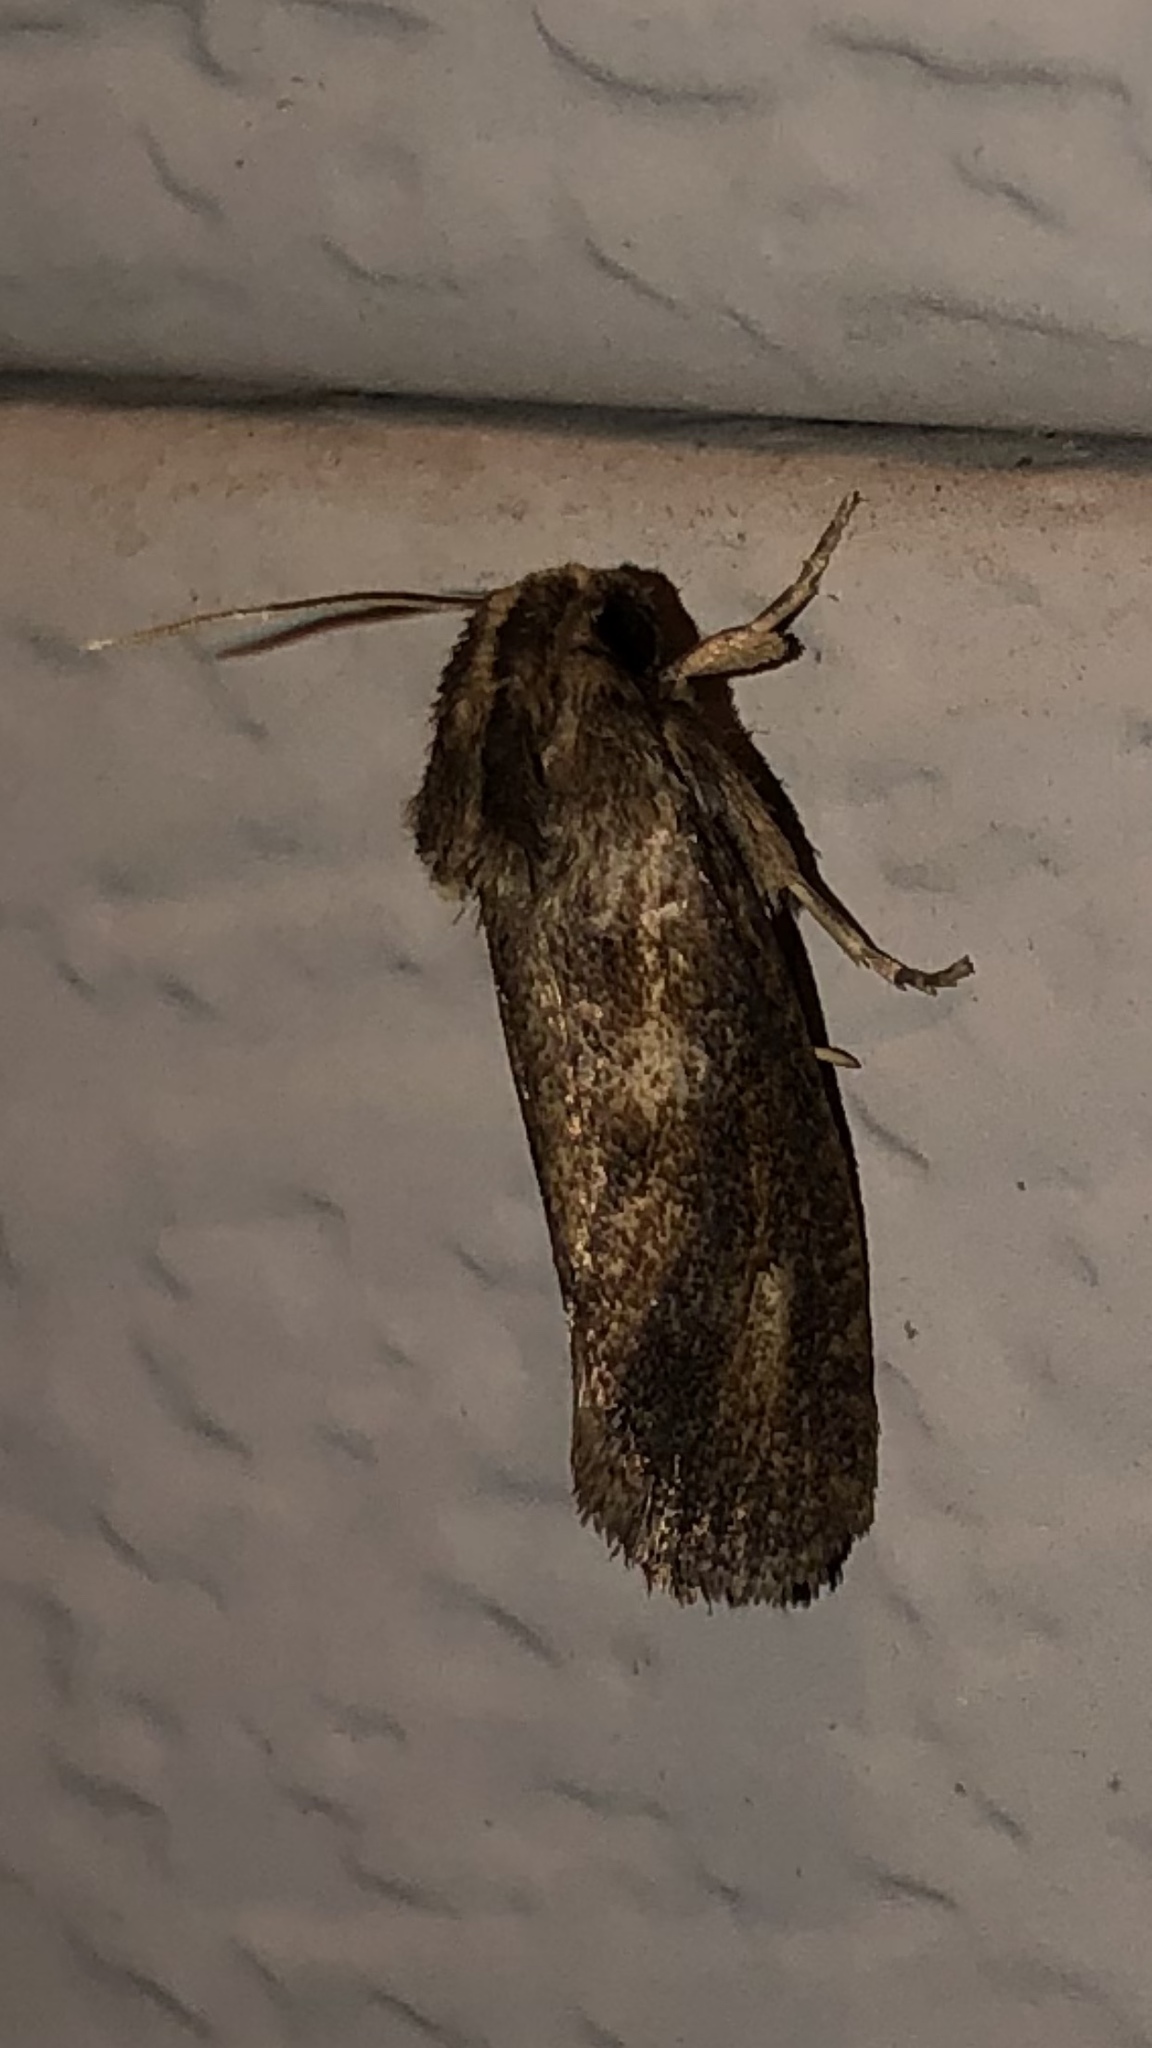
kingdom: Animalia
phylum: Arthropoda
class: Insecta
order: Lepidoptera
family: Tineidae
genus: Acrolophus
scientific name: Acrolophus popeanella
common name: Clemens' grass tubeworm moth
